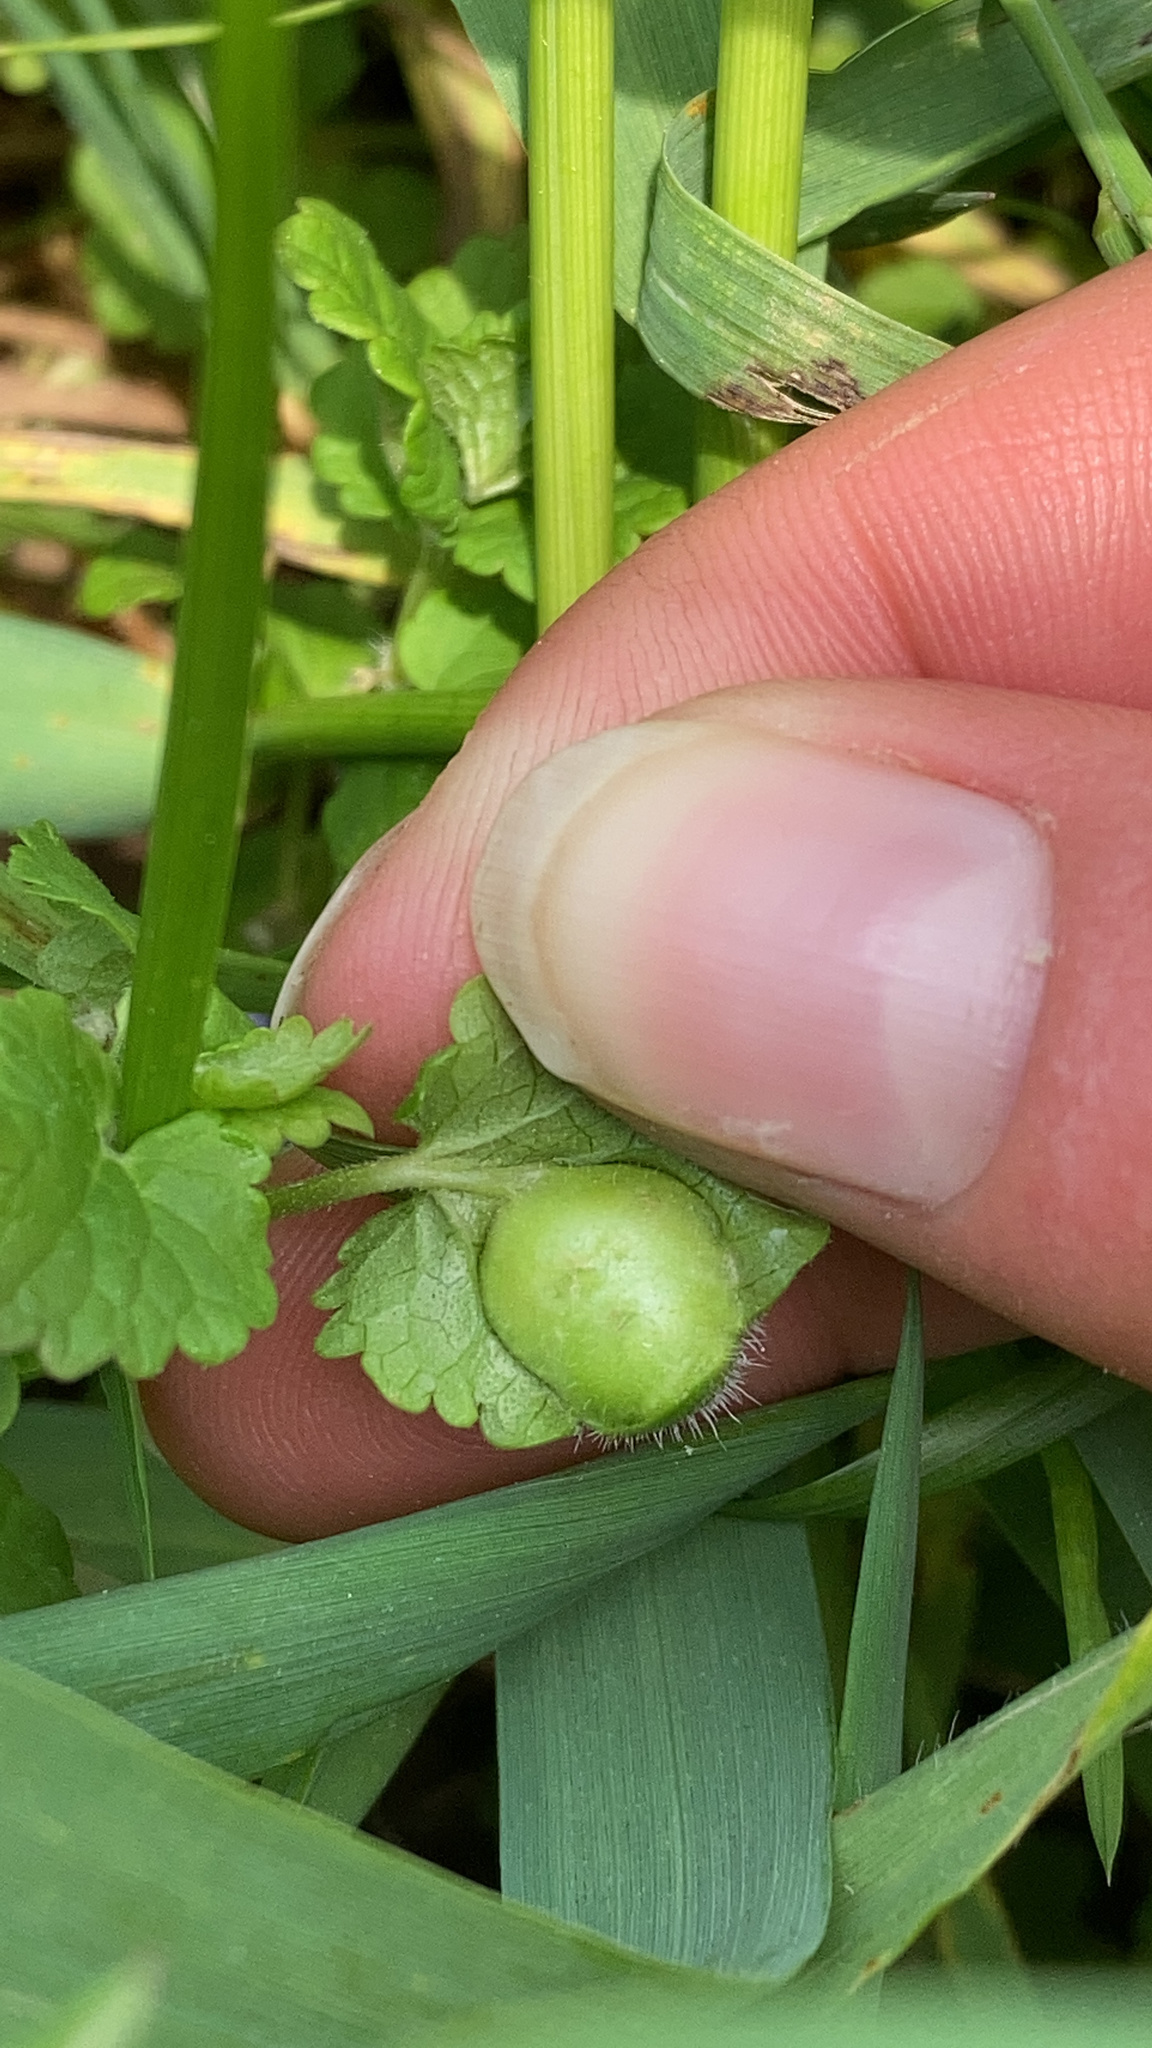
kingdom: Animalia
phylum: Arthropoda
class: Insecta
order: Hymenoptera
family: Cynipidae
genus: Liposthenes
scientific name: Liposthenes glechomae
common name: Gall wasp
